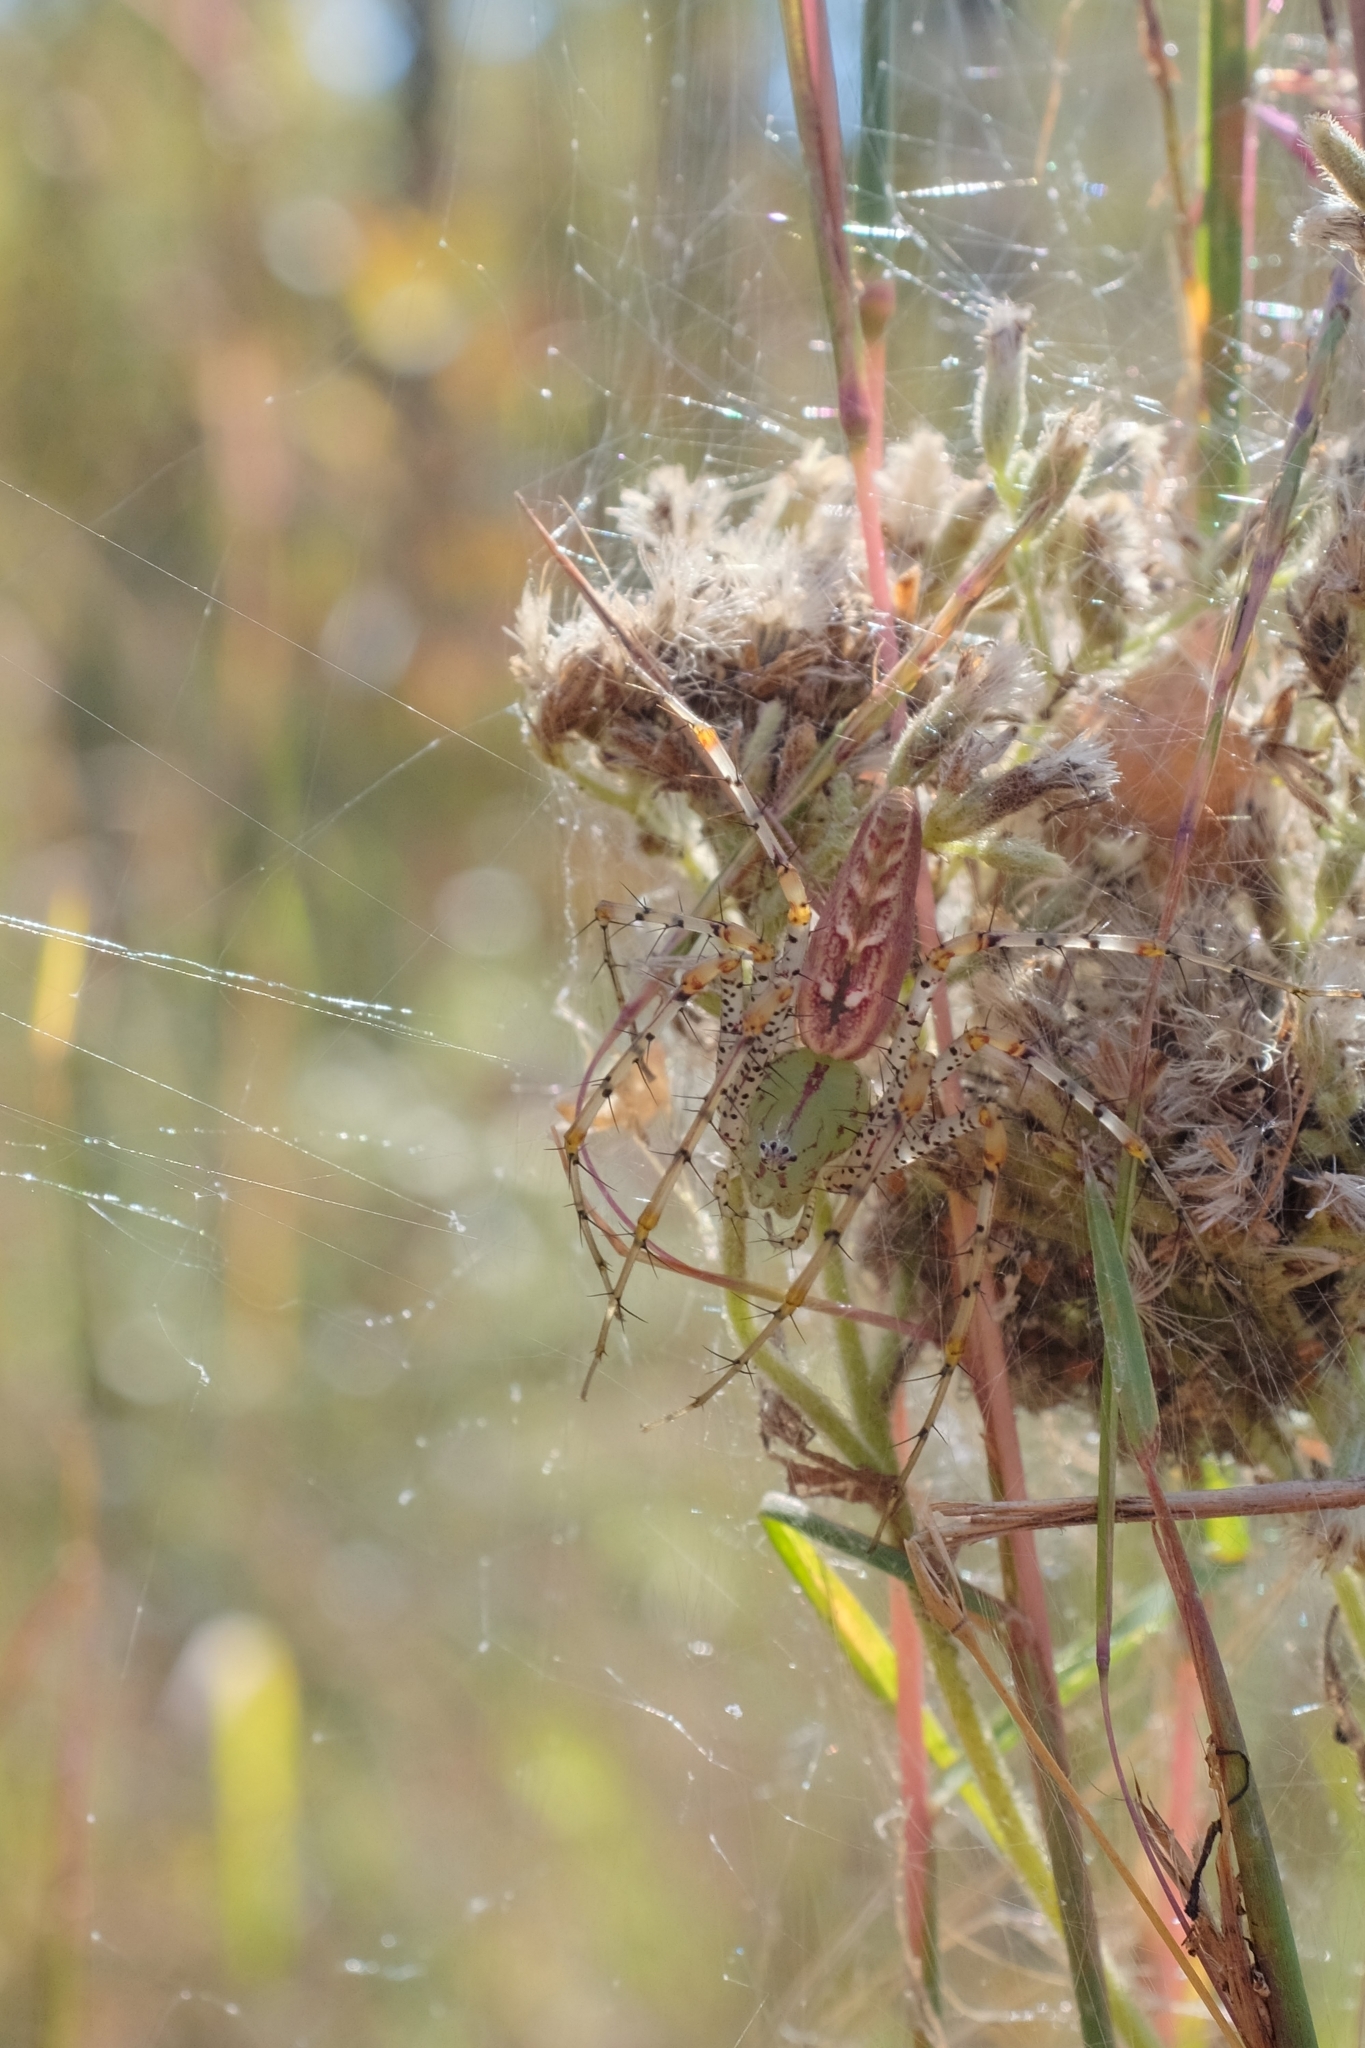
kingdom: Animalia
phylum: Arthropoda
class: Arachnida
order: Araneae
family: Oxyopidae
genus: Peucetia
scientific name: Peucetia viridans
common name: Lynx spiders
